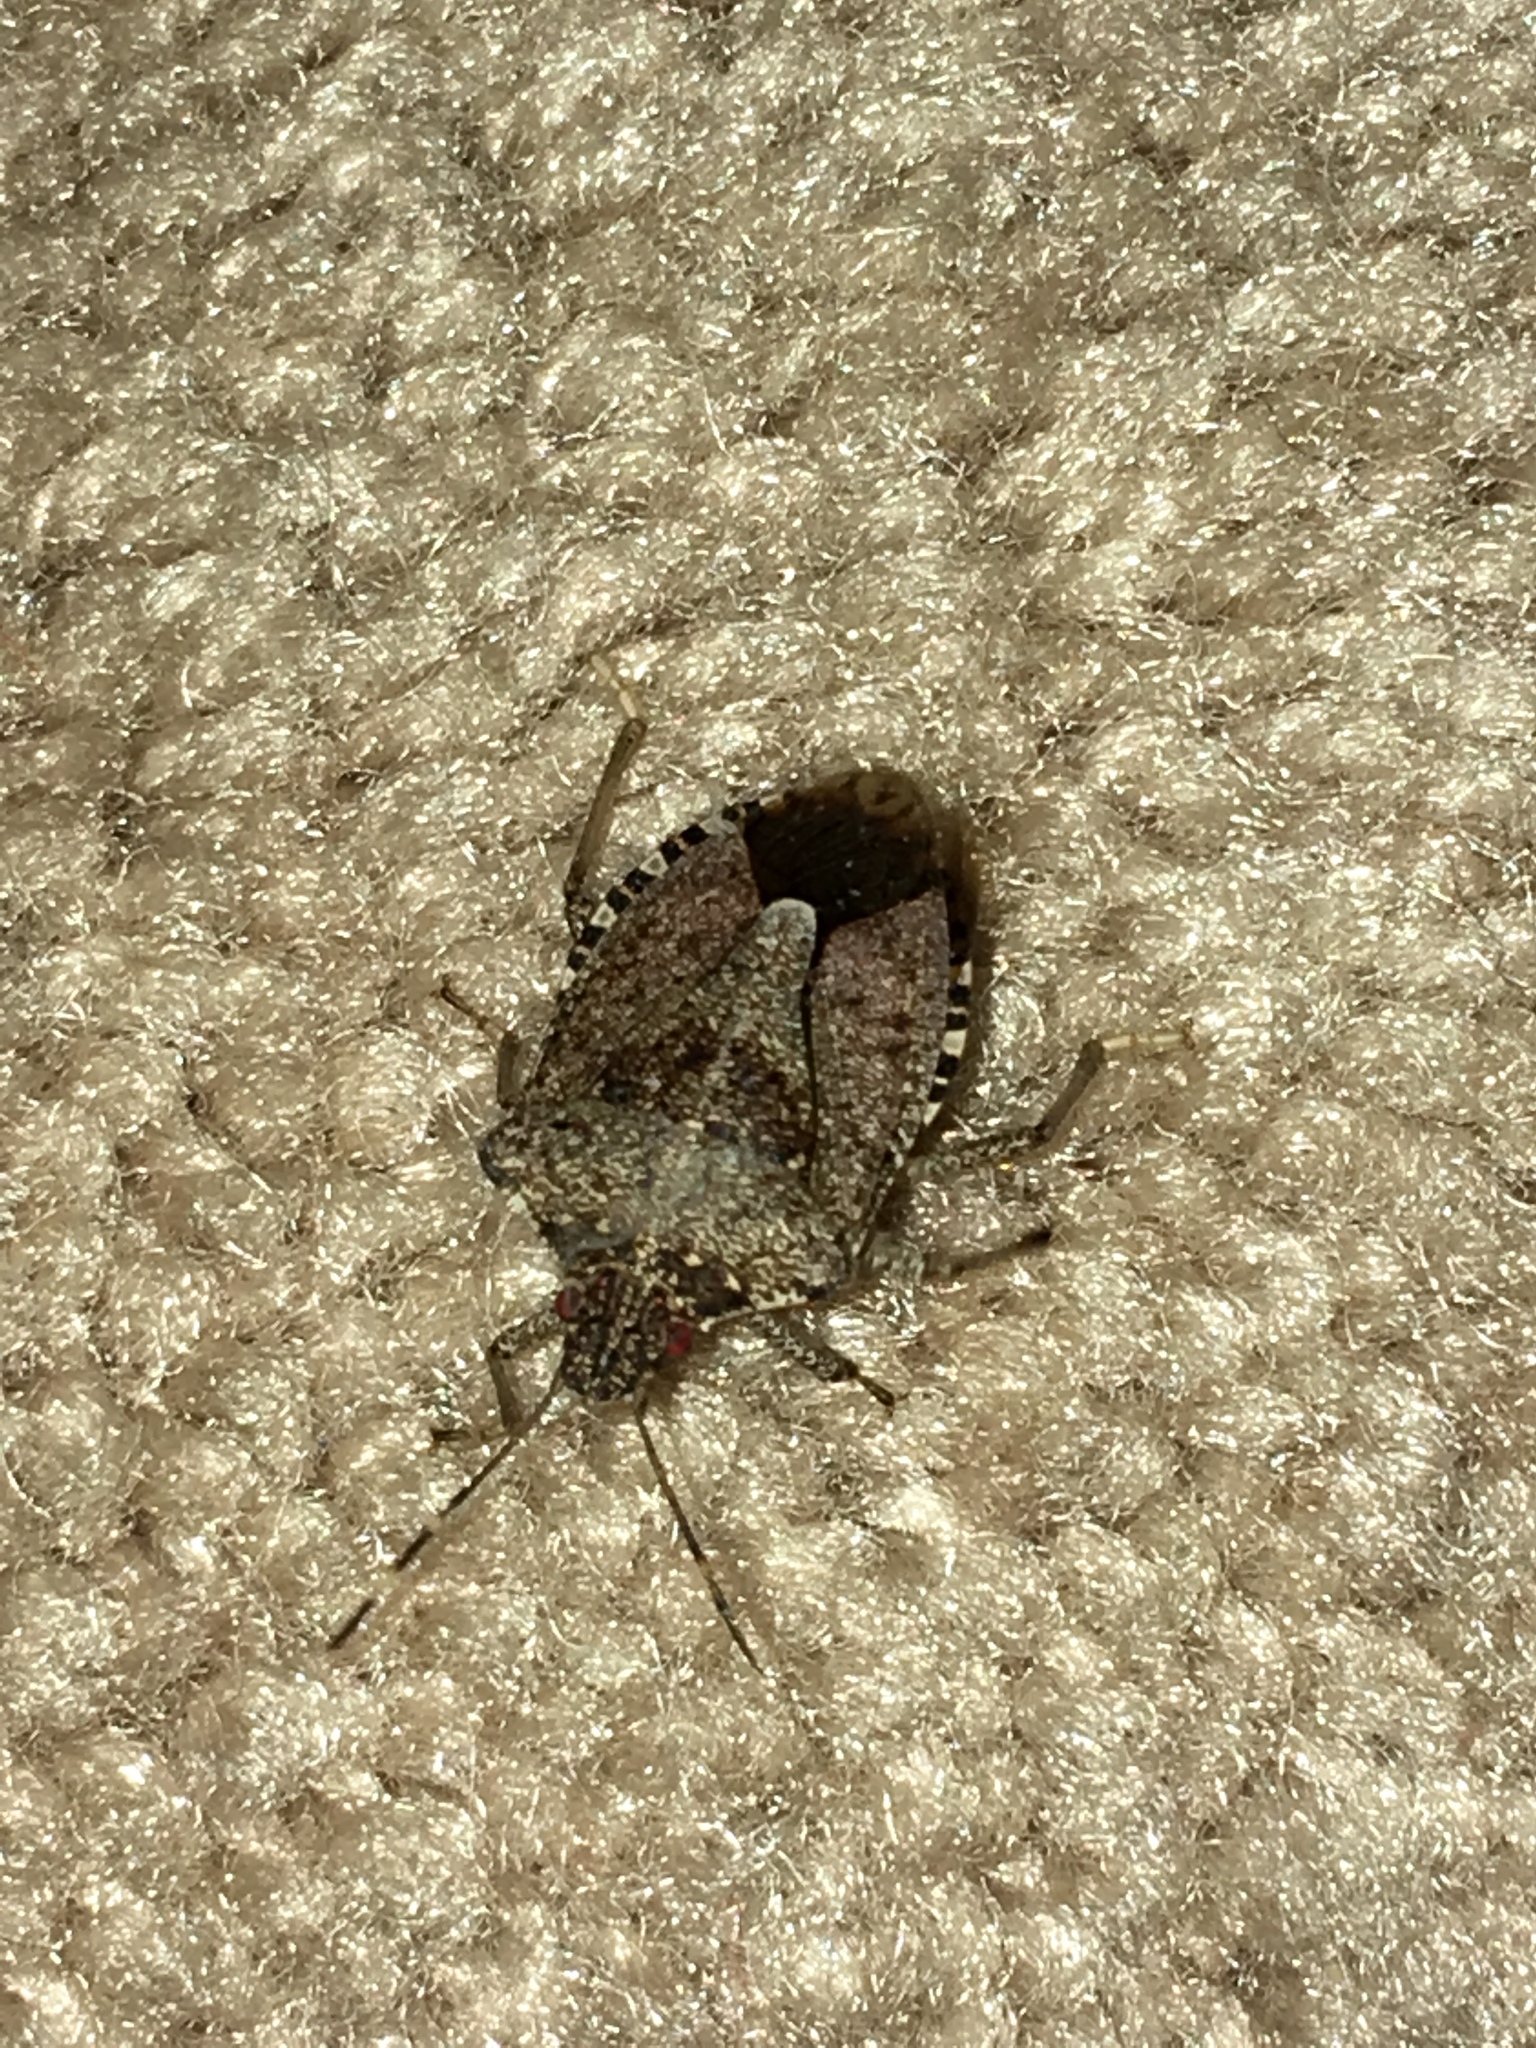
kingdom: Animalia
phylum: Arthropoda
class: Insecta
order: Hemiptera
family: Pentatomidae
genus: Halyomorpha
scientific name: Halyomorpha halys
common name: Brown marmorated stink bug
